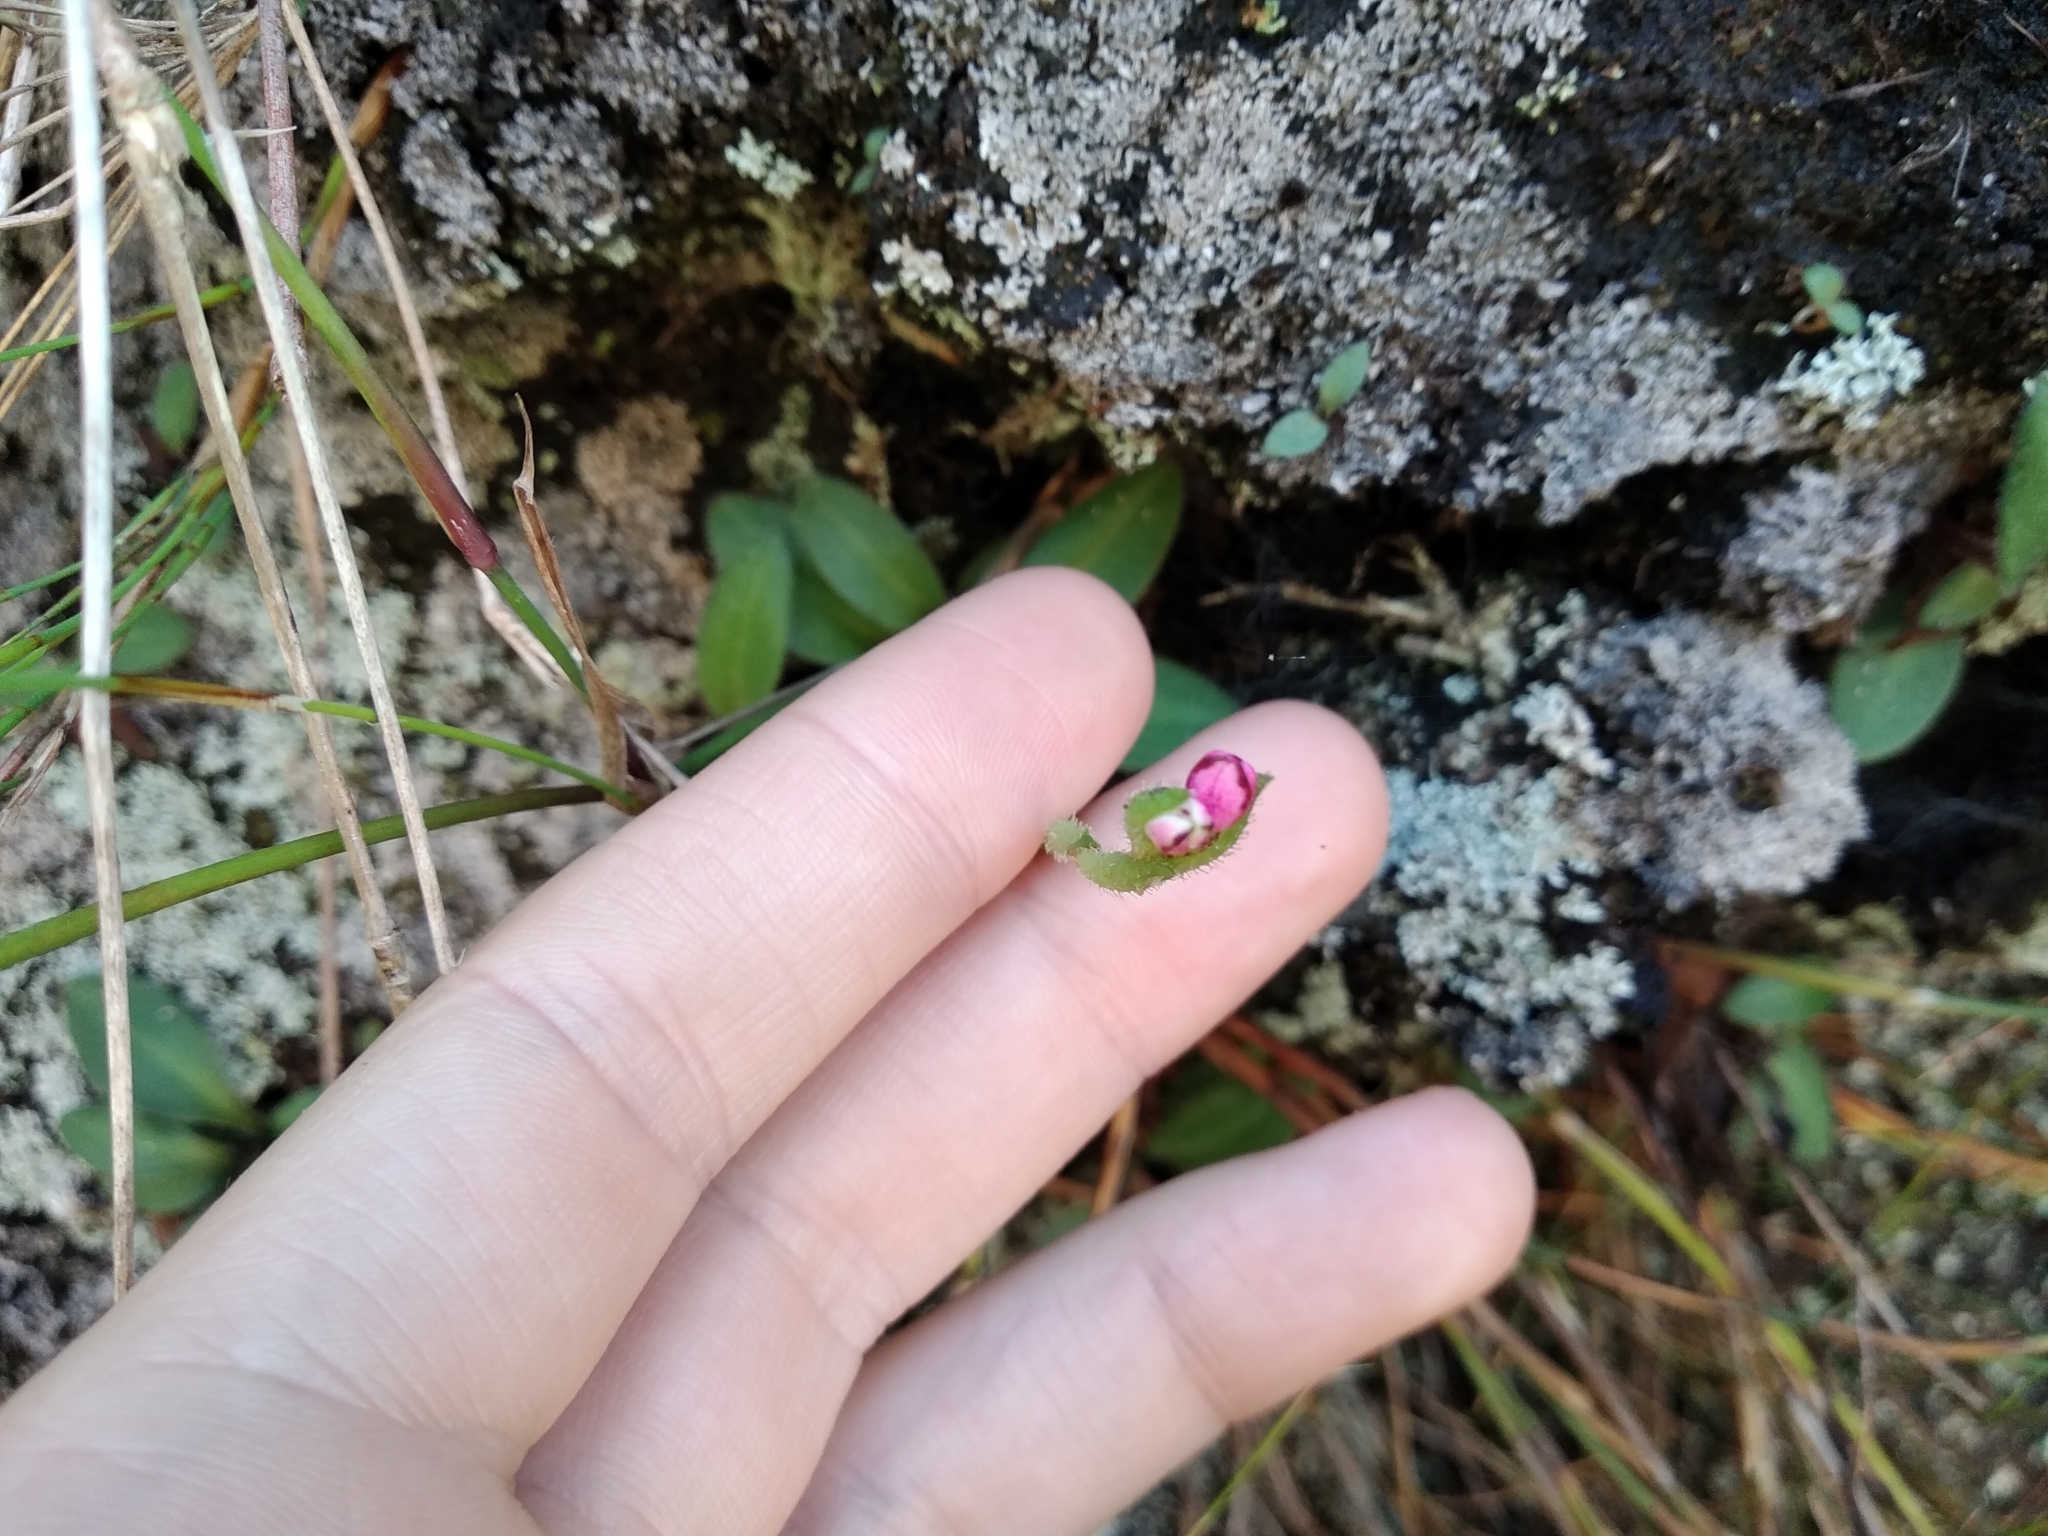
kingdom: Plantae
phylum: Tracheophyta
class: Liliopsida
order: Asparagales
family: Orchidaceae
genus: Disa
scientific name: Disa glandulosa
